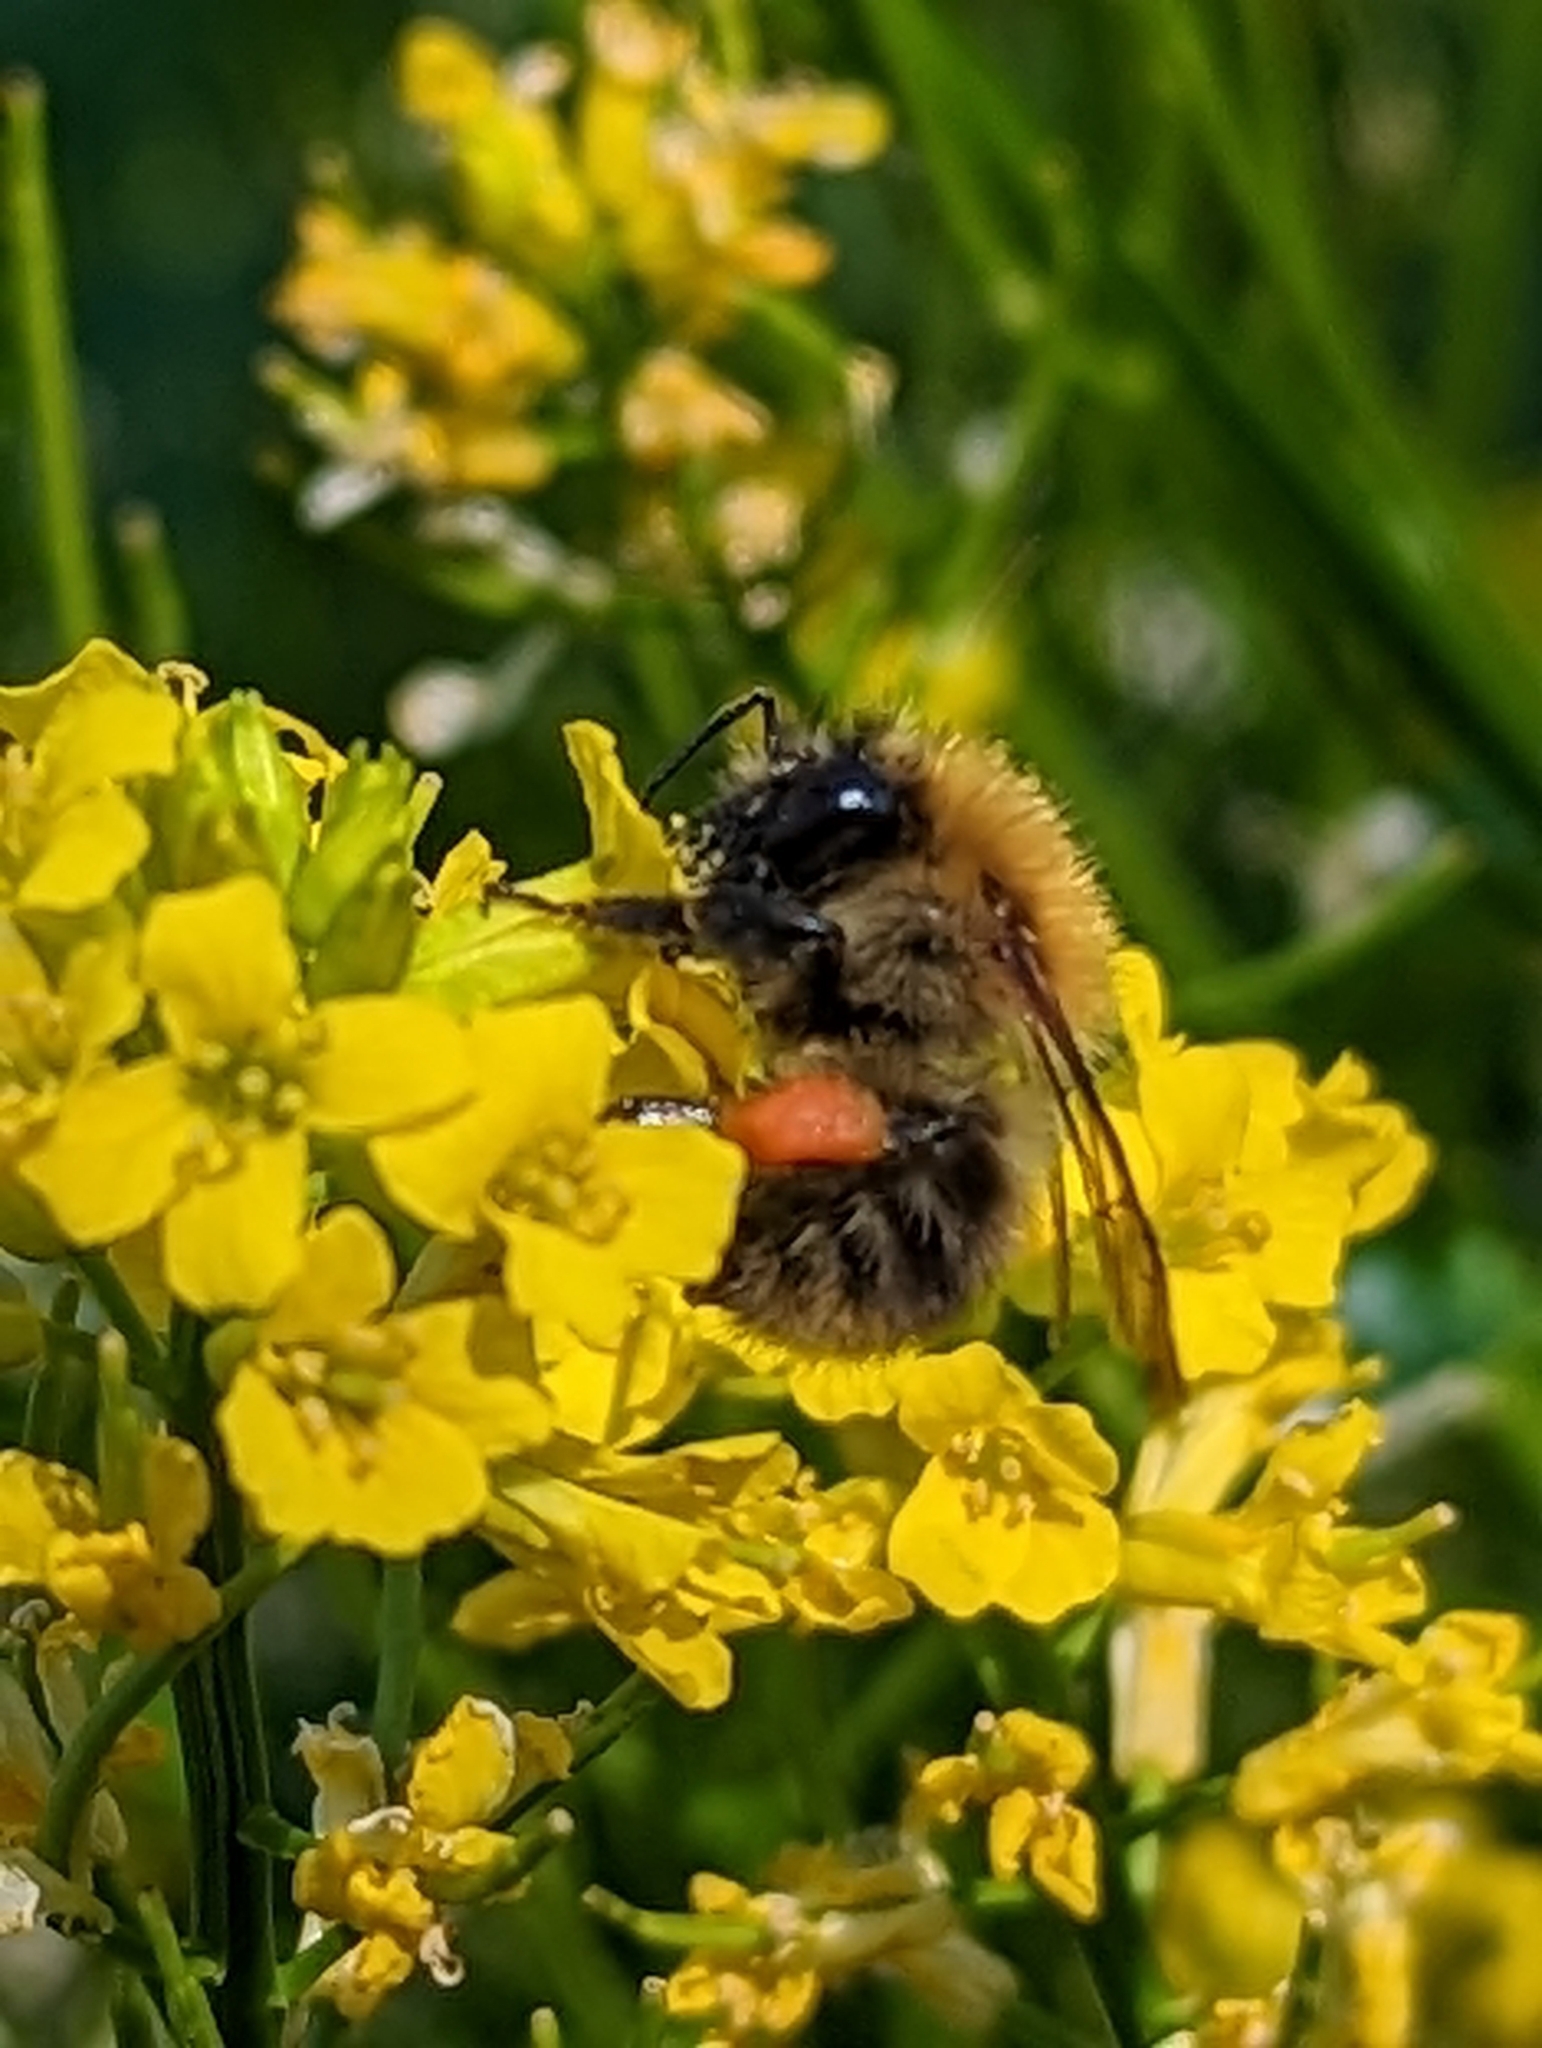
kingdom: Animalia
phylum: Arthropoda
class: Insecta
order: Hymenoptera
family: Apidae
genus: Bombus
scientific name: Bombus pascuorum
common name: Common carder bee
